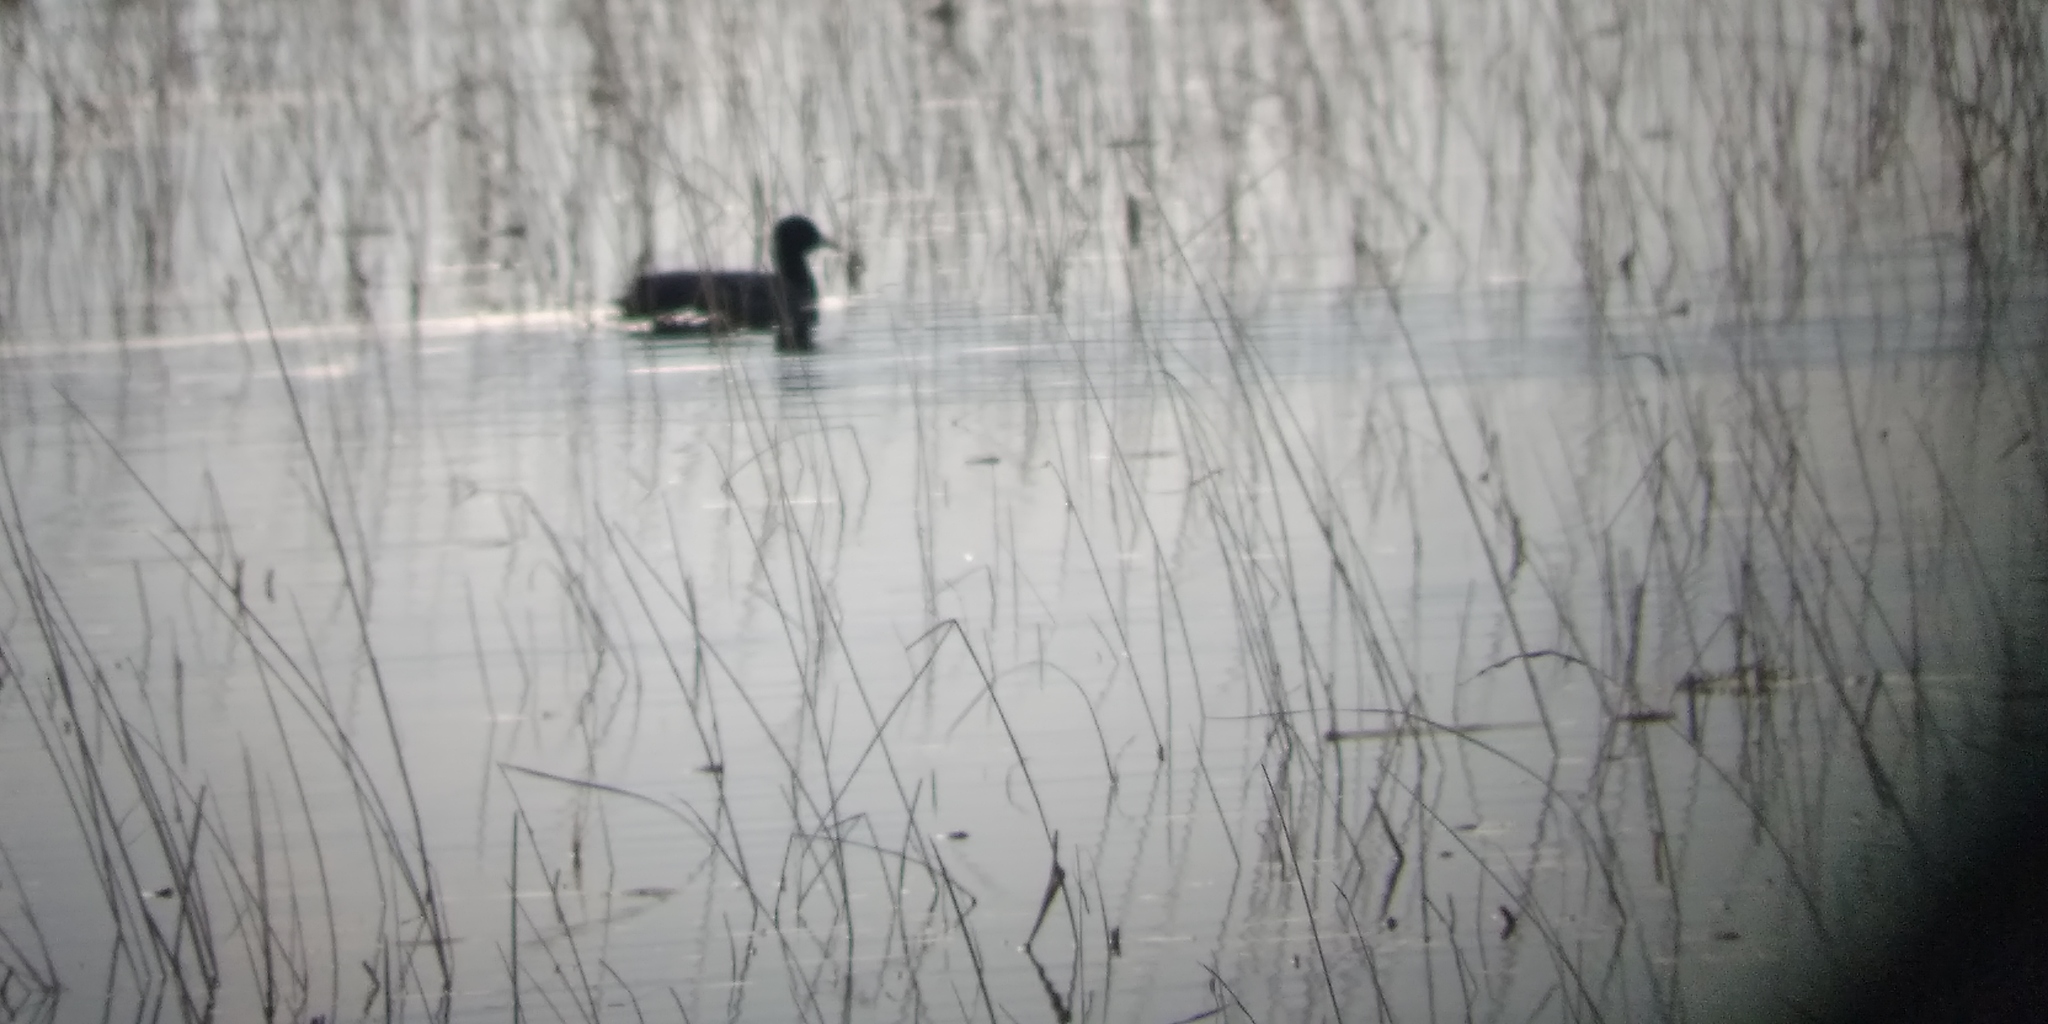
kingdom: Animalia
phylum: Chordata
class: Aves
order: Gruiformes
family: Rallidae
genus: Fulica
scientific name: Fulica atra
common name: Eurasian coot
